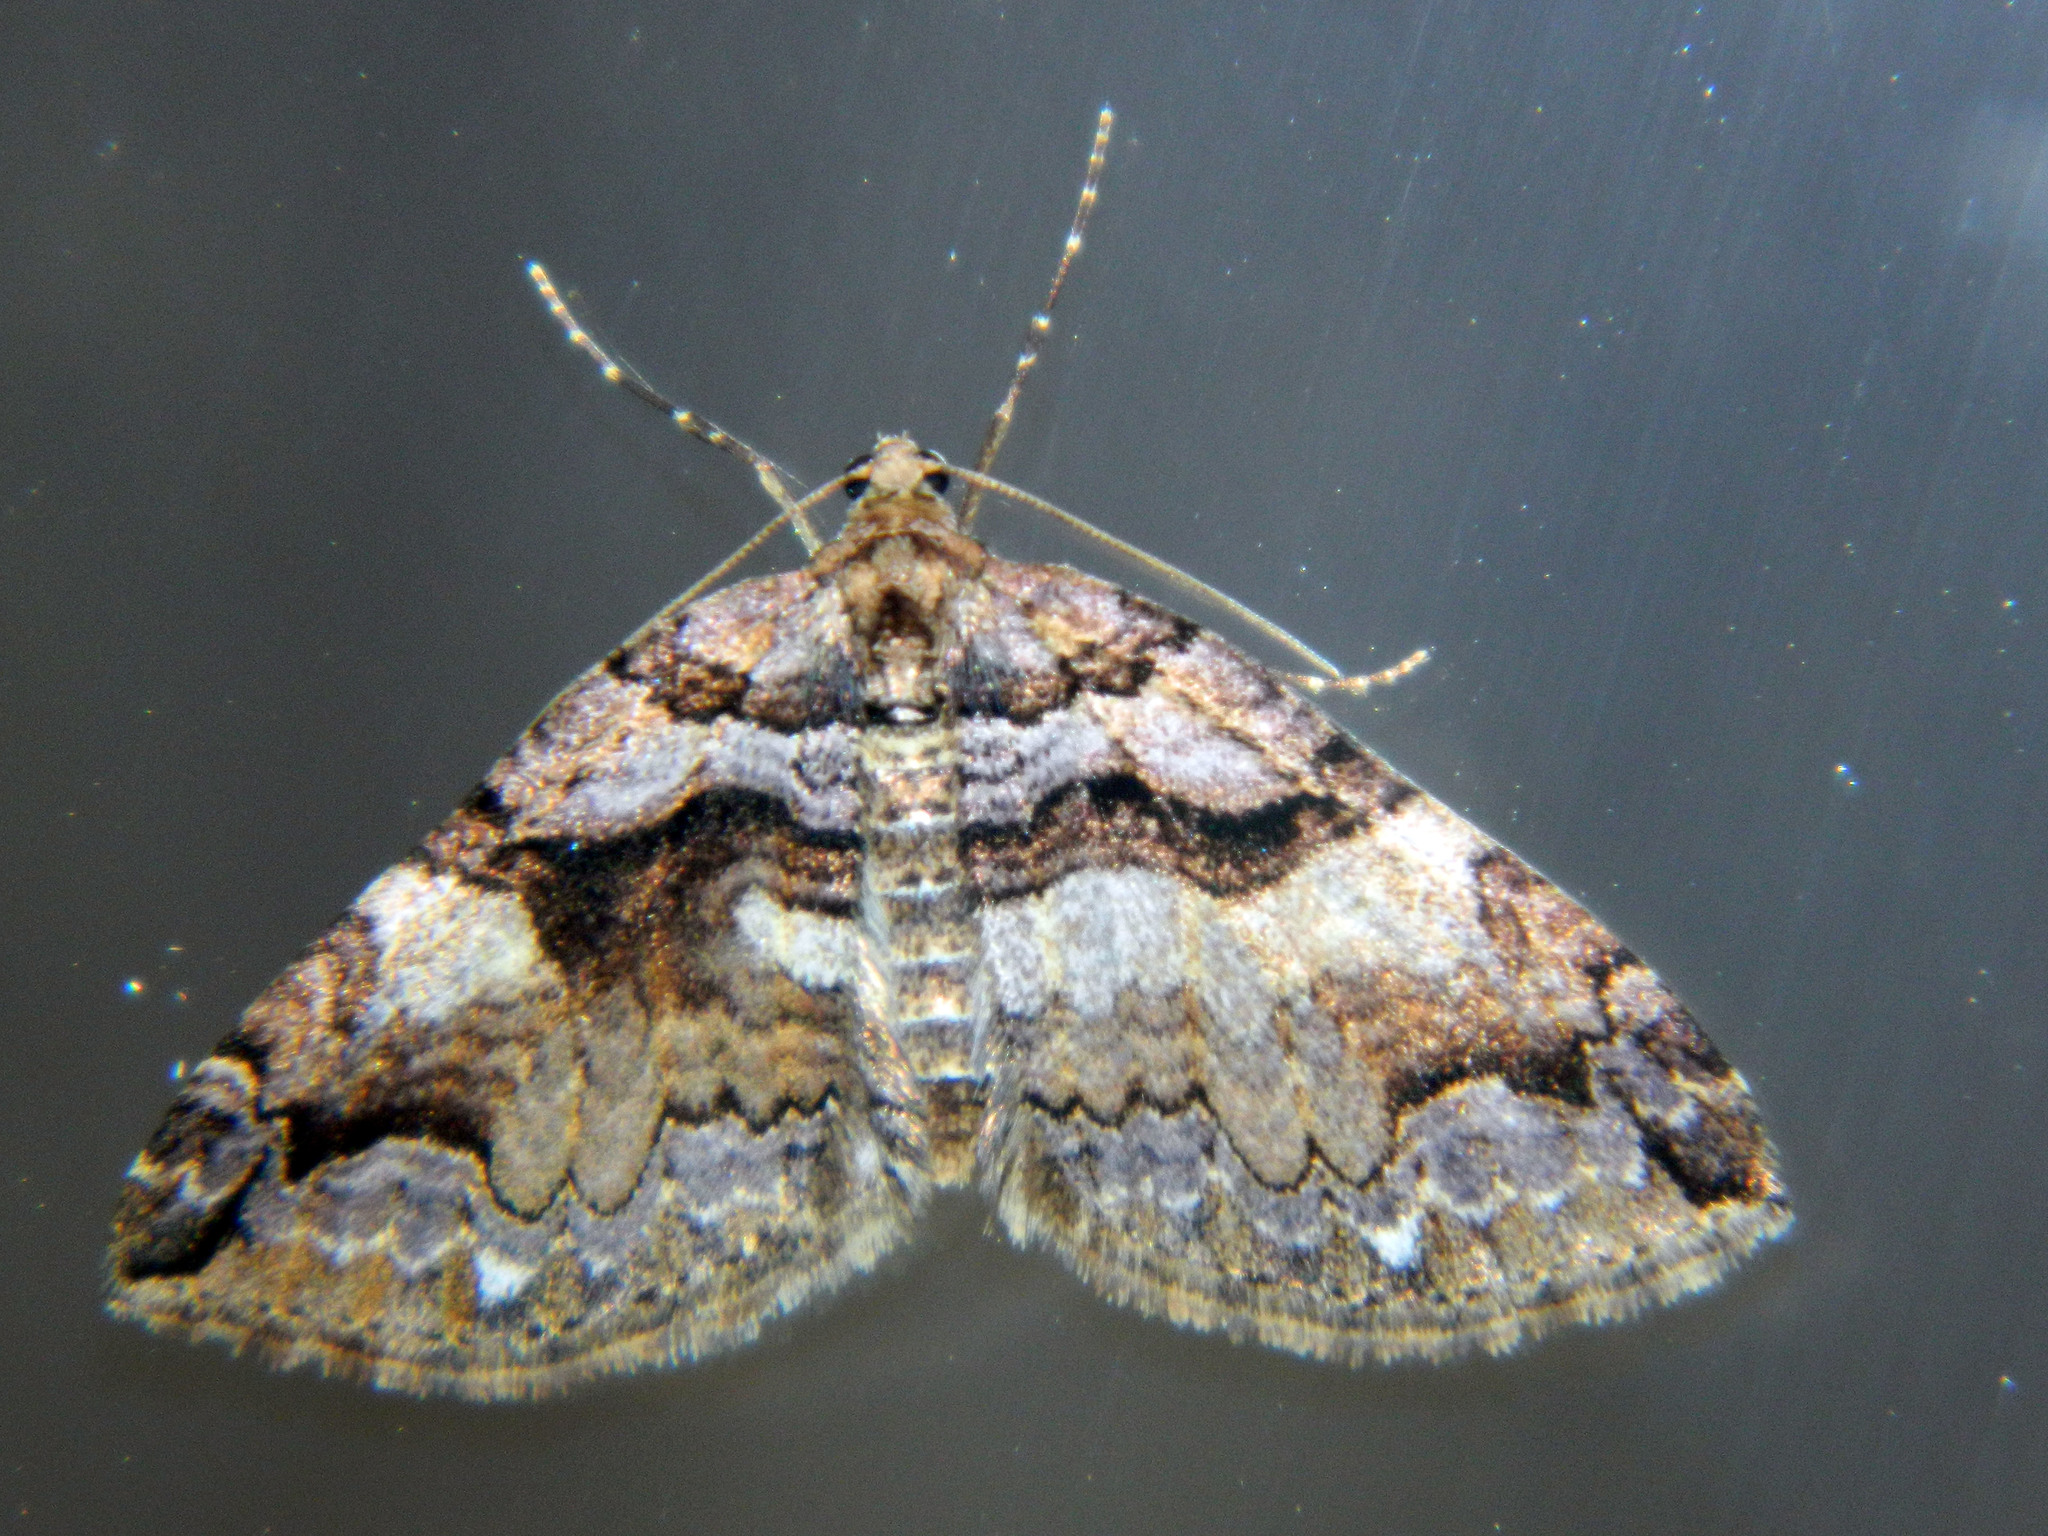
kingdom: Animalia
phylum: Arthropoda
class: Insecta
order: Lepidoptera
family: Geometridae
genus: Anticlea
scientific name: Anticlea vasiliata
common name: Variable carpet
